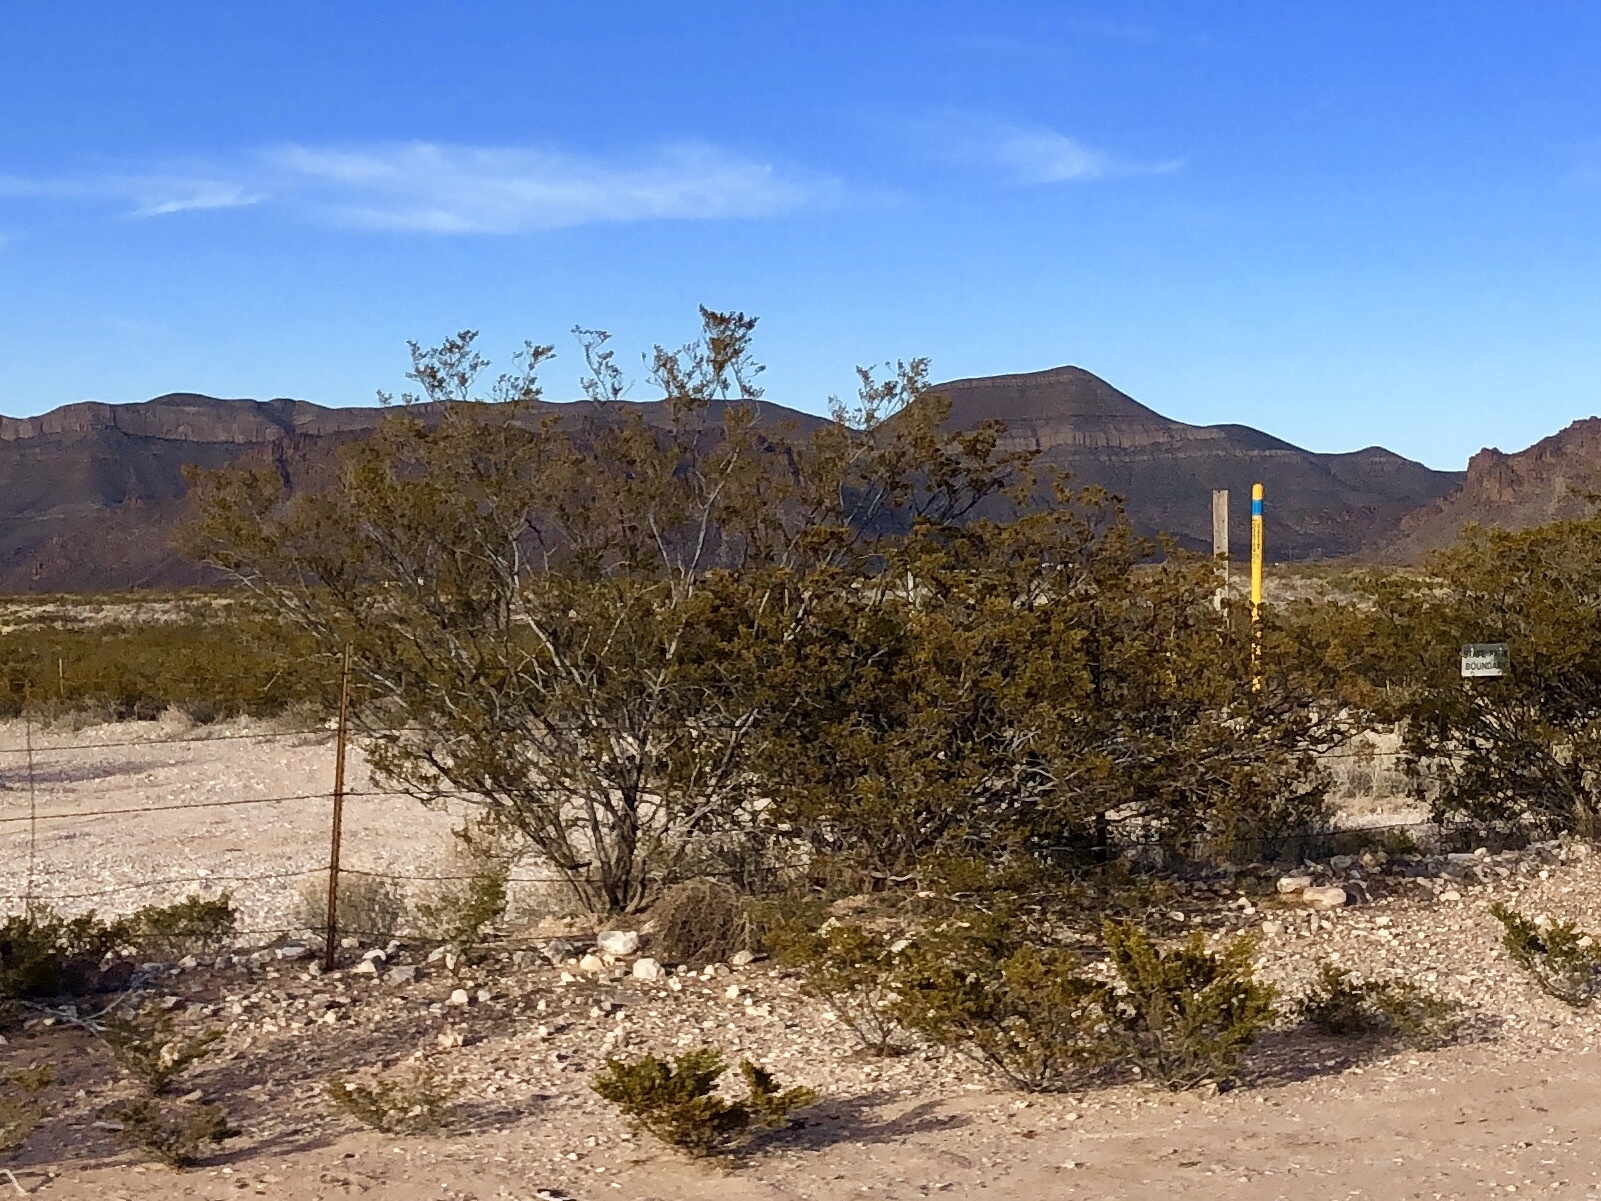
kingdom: Plantae
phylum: Tracheophyta
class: Magnoliopsida
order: Zygophyllales
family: Zygophyllaceae
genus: Larrea
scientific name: Larrea tridentata
